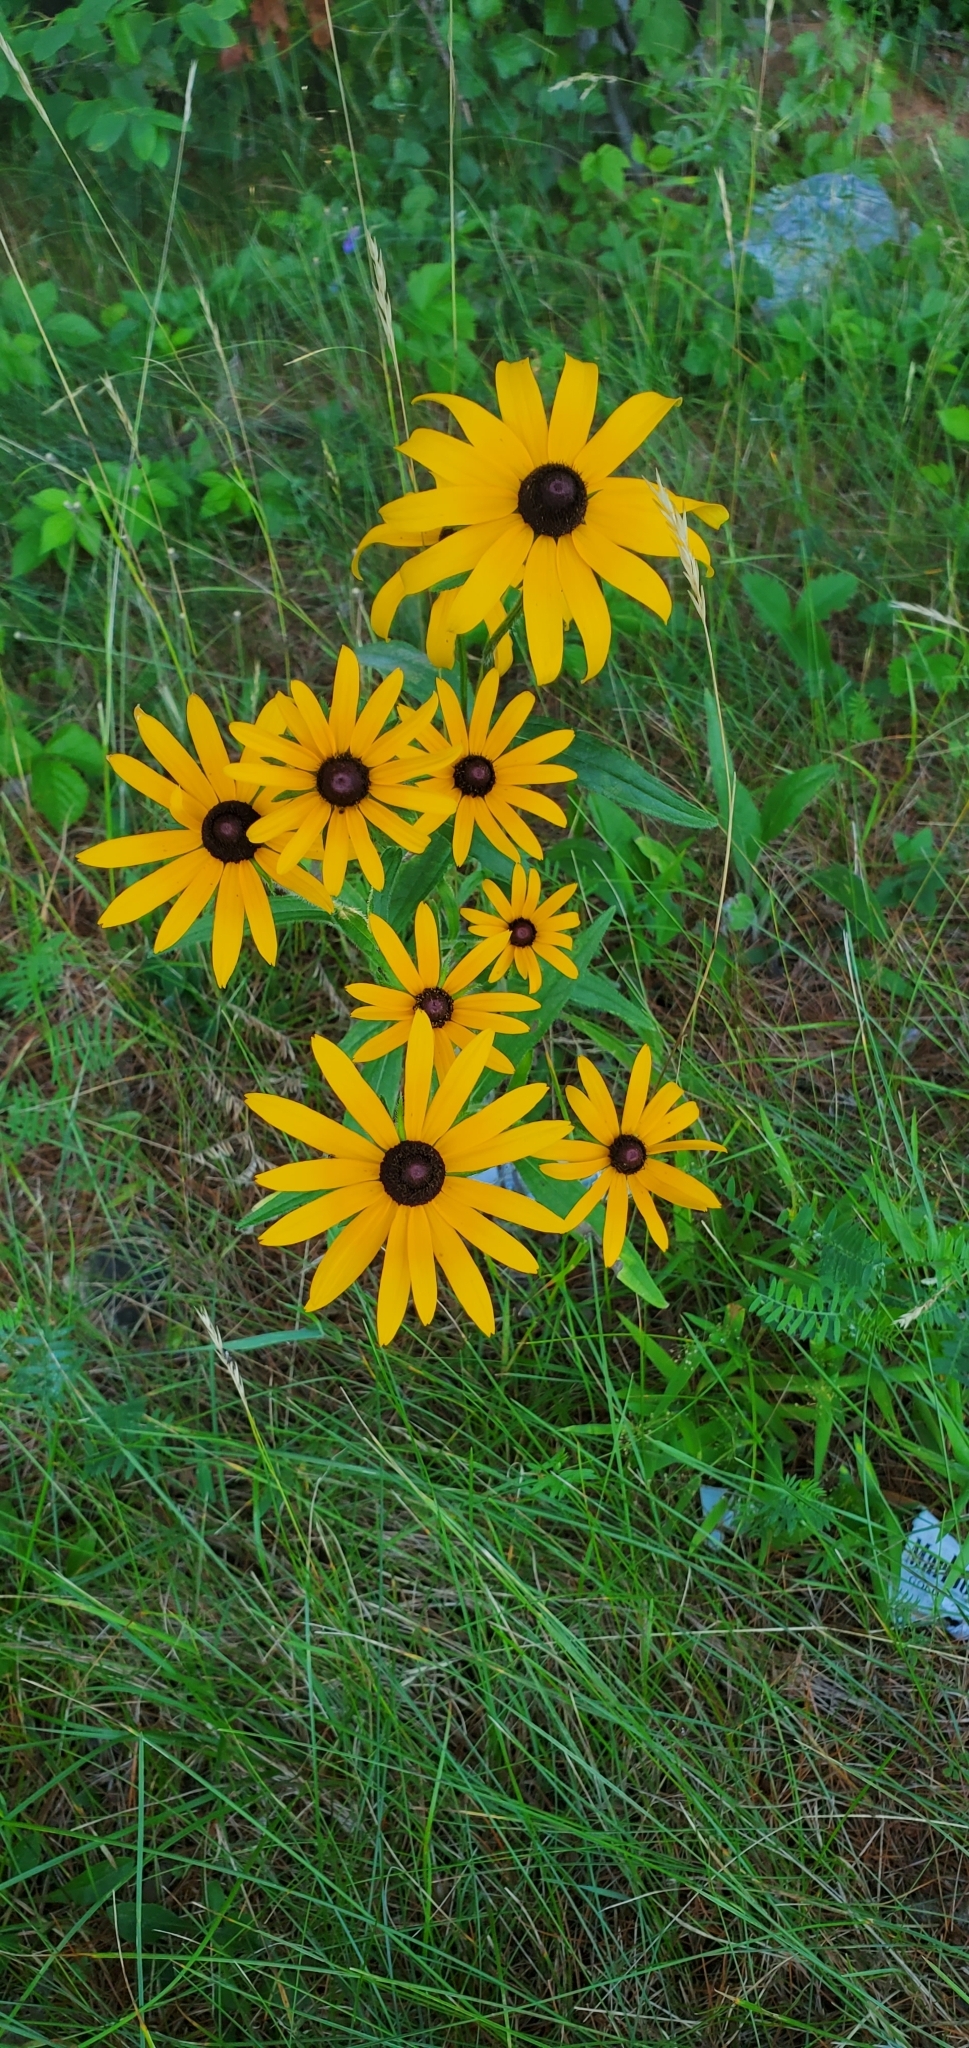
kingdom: Plantae
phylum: Tracheophyta
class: Magnoliopsida
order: Asterales
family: Asteraceae
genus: Rudbeckia
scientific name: Rudbeckia hirta
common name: Black-eyed-susan
